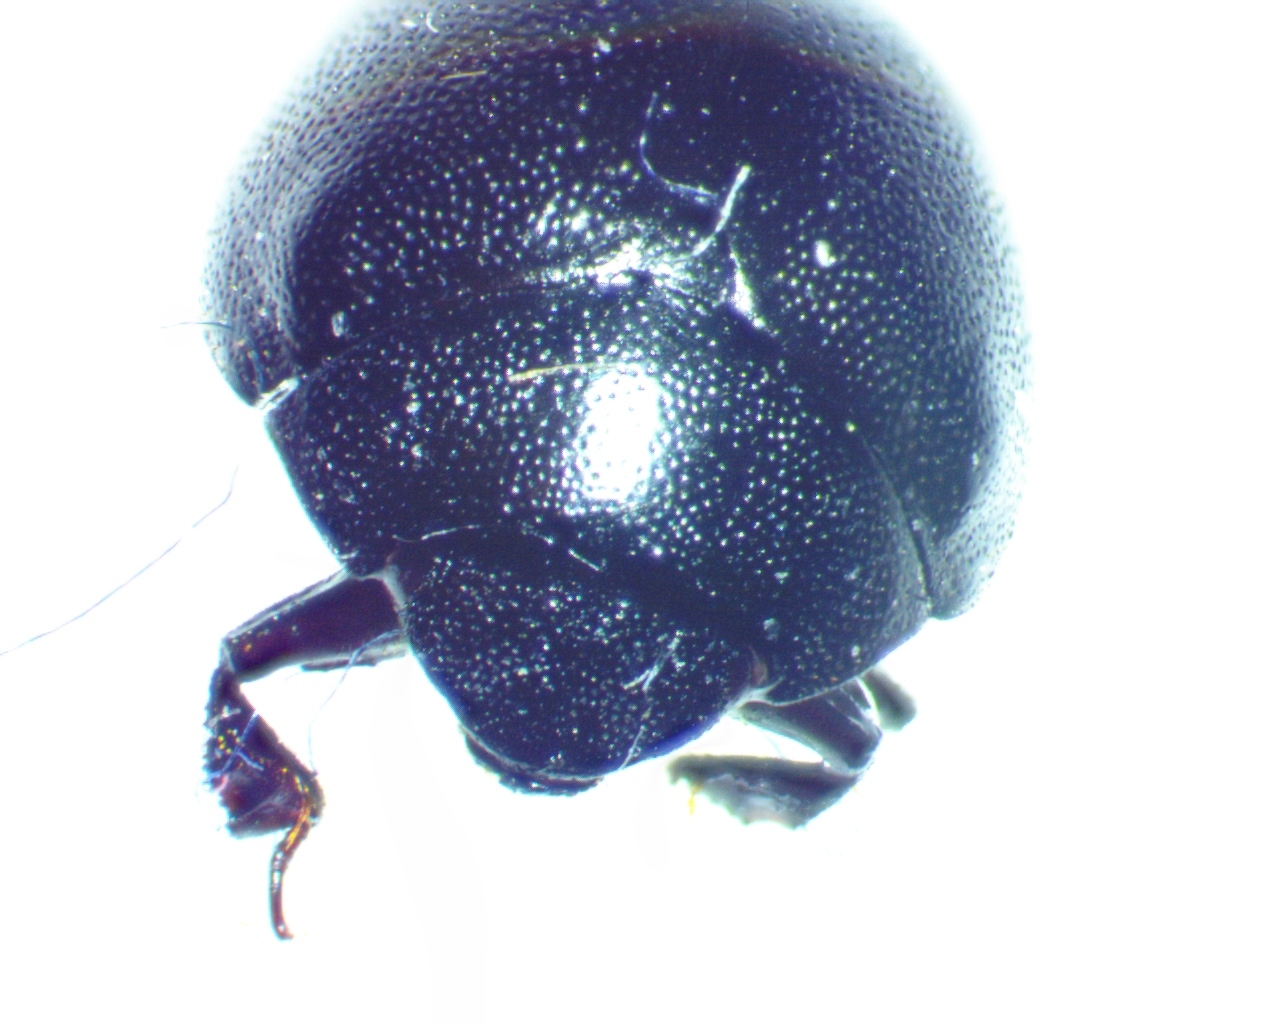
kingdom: Animalia
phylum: Arthropoda
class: Insecta
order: Coleoptera
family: Nosodendridae
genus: Nosodendron
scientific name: Nosodendron unicolor
